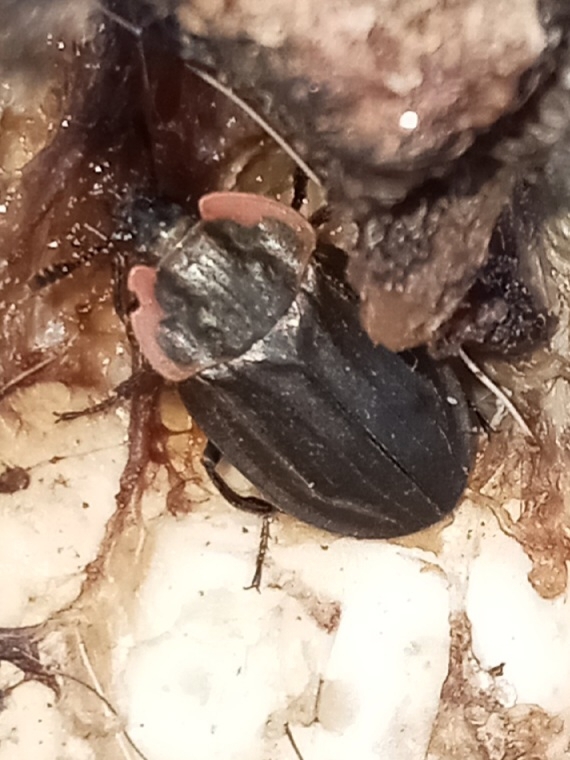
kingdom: Animalia
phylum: Arthropoda
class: Insecta
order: Coleoptera
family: Staphylinidae
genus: Oiceoptoma
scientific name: Oiceoptoma noveboracense
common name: Margined carrion beetle
